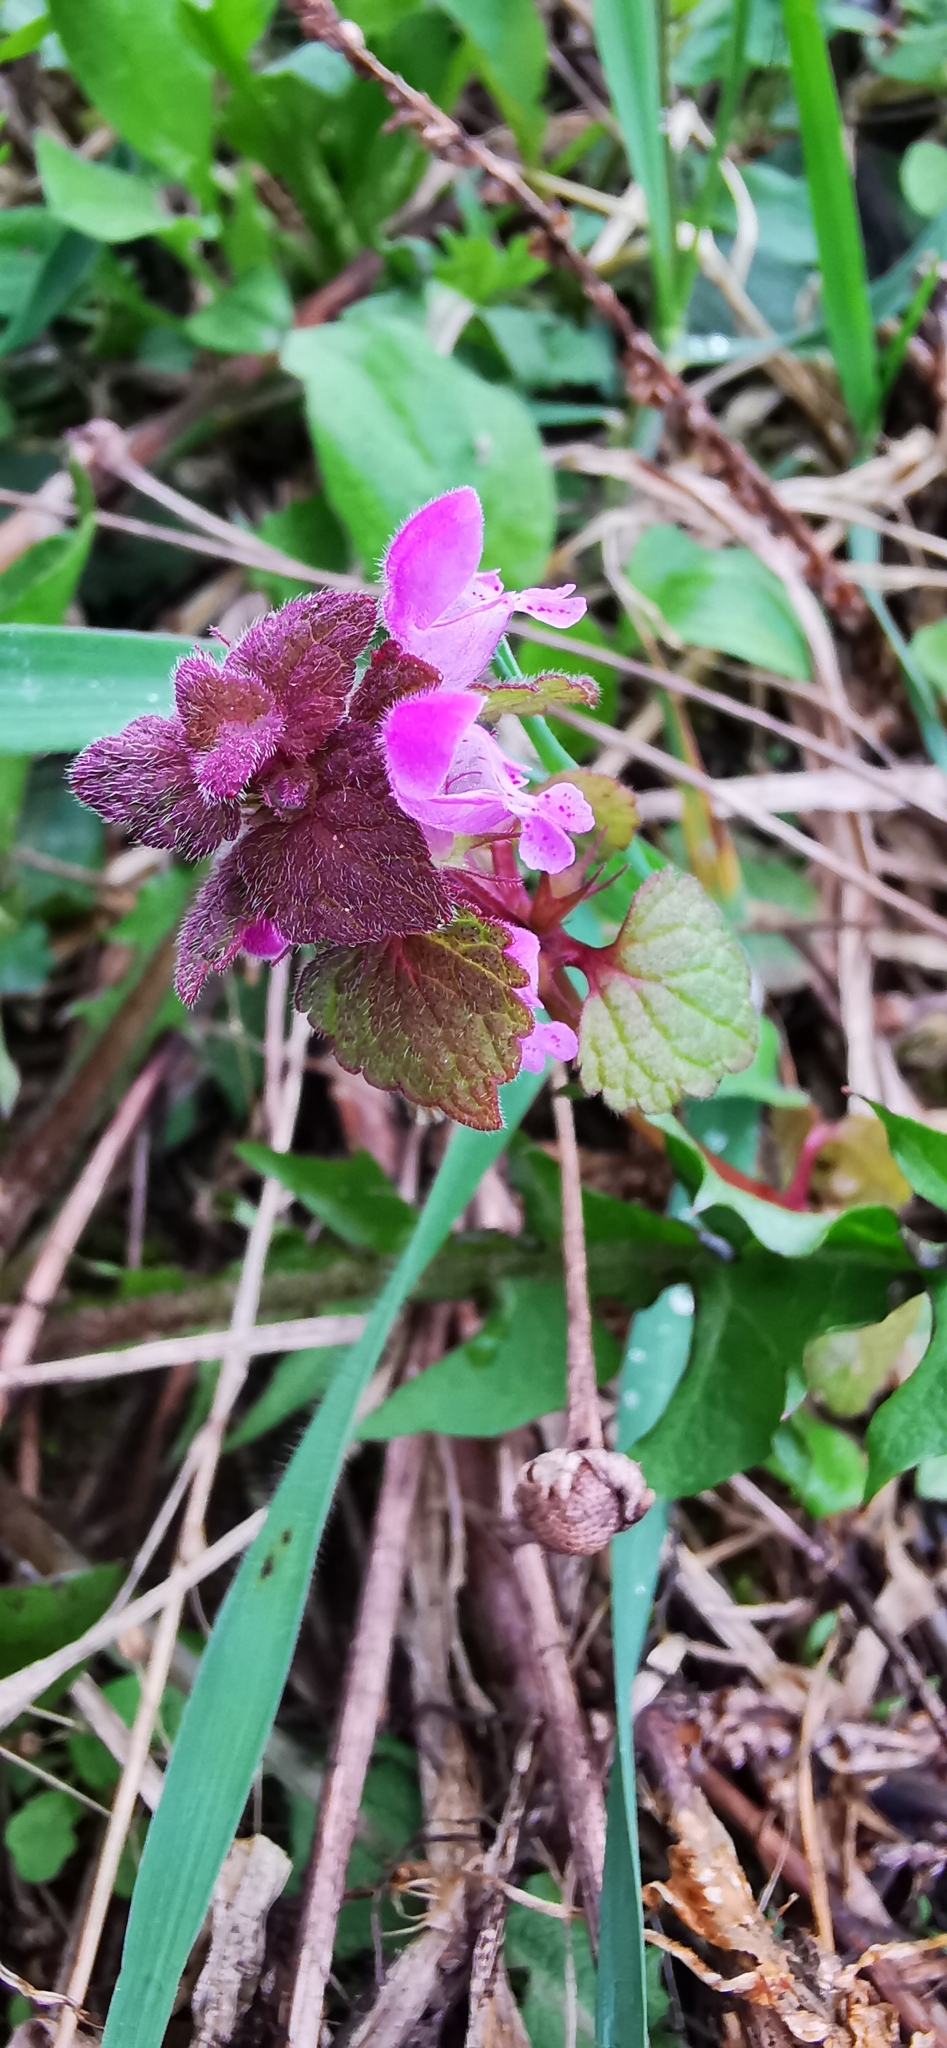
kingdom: Plantae
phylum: Tracheophyta
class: Magnoliopsida
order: Lamiales
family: Lamiaceae
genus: Lamium
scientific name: Lamium purpureum
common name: Red dead-nettle
